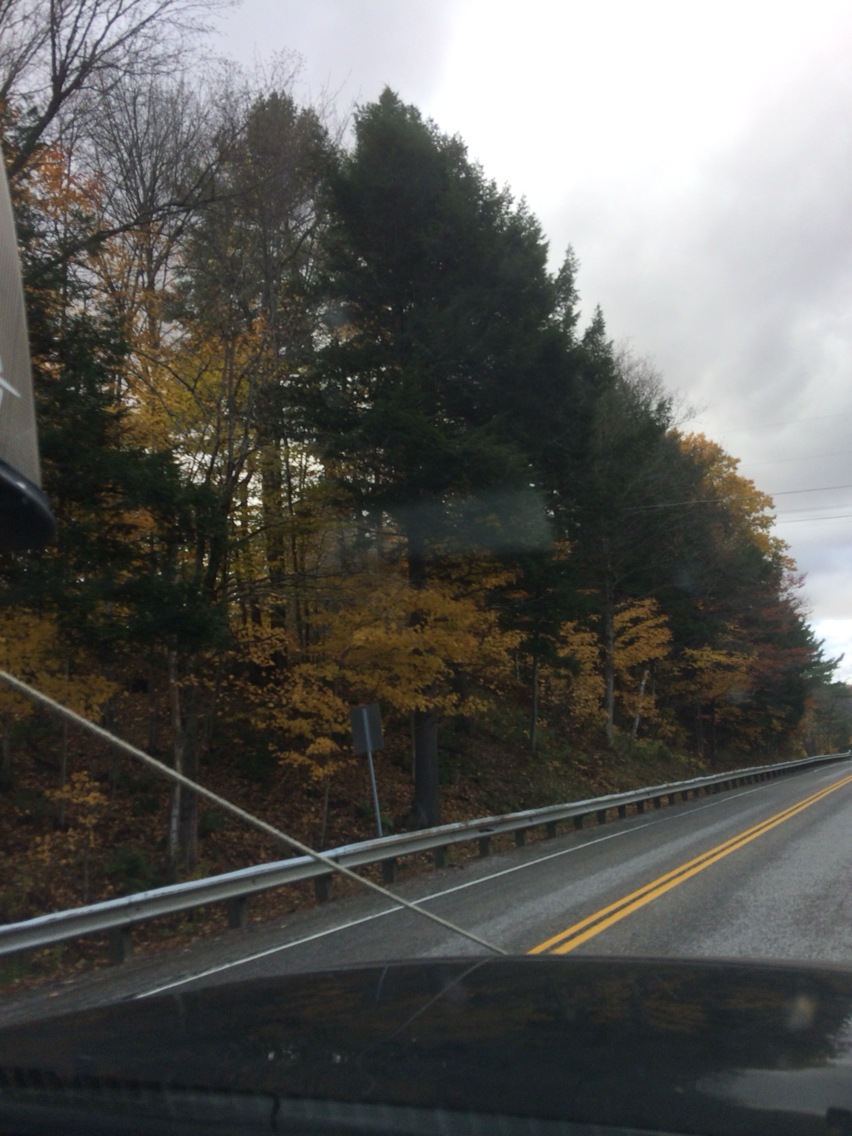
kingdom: Plantae
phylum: Tracheophyta
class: Pinopsida
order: Pinales
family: Pinaceae
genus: Tsuga
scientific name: Tsuga canadensis
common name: Eastern hemlock
